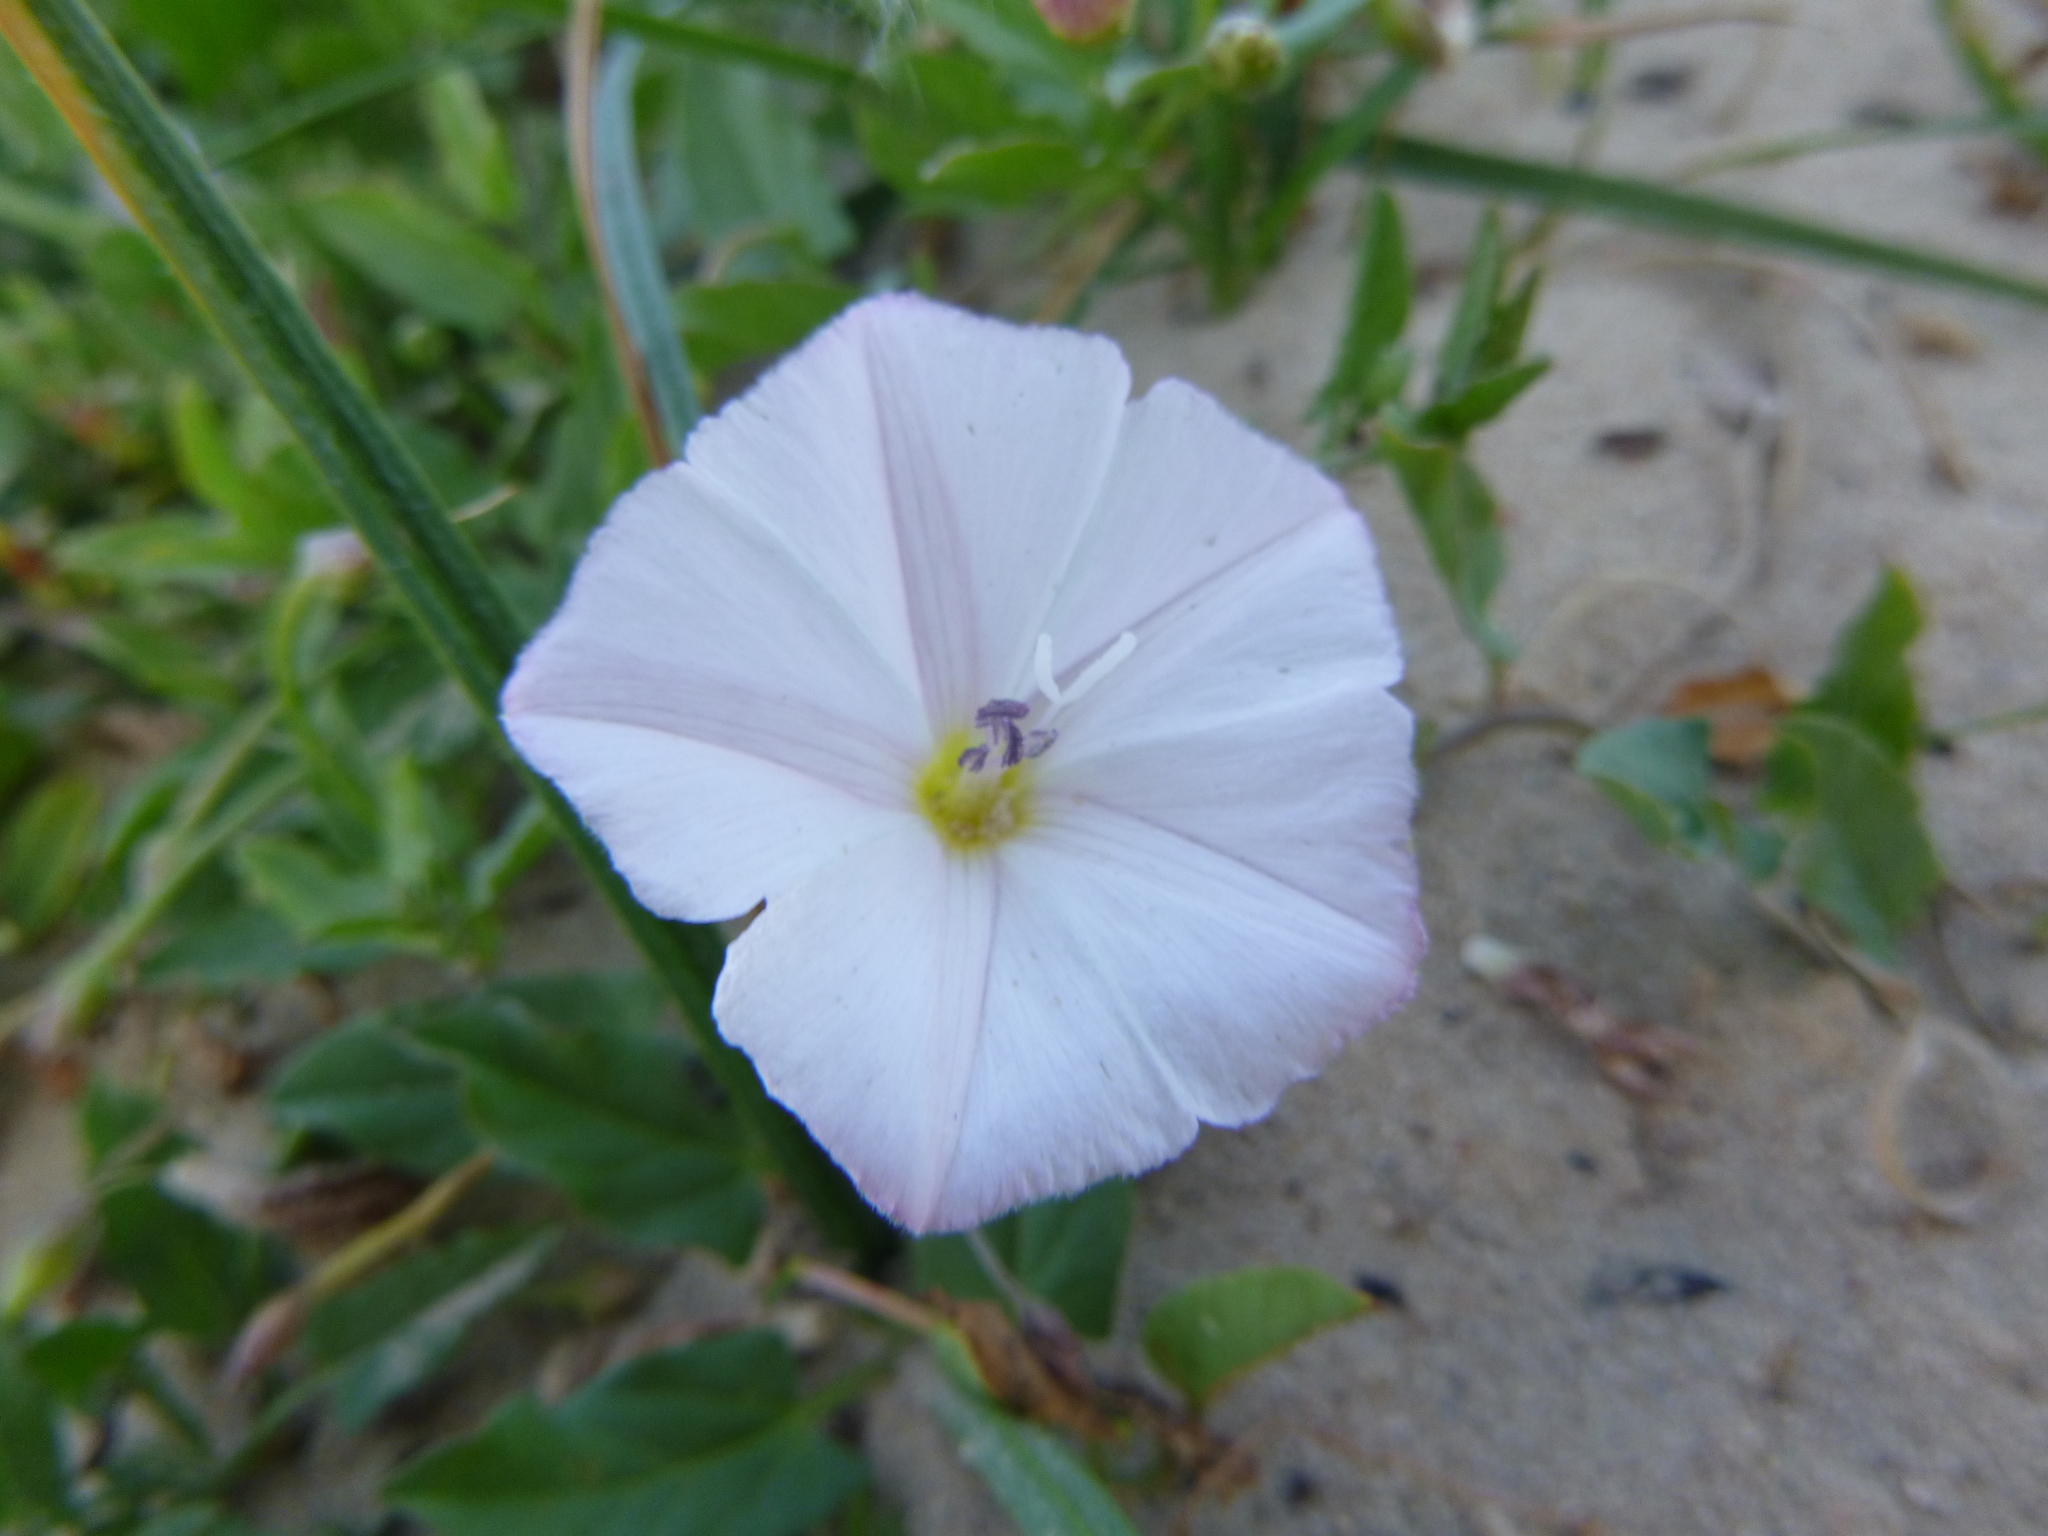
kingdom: Plantae
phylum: Tracheophyta
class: Magnoliopsida
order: Solanales
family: Convolvulaceae
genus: Convolvulus
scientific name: Convolvulus arvensis
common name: Field bindweed
